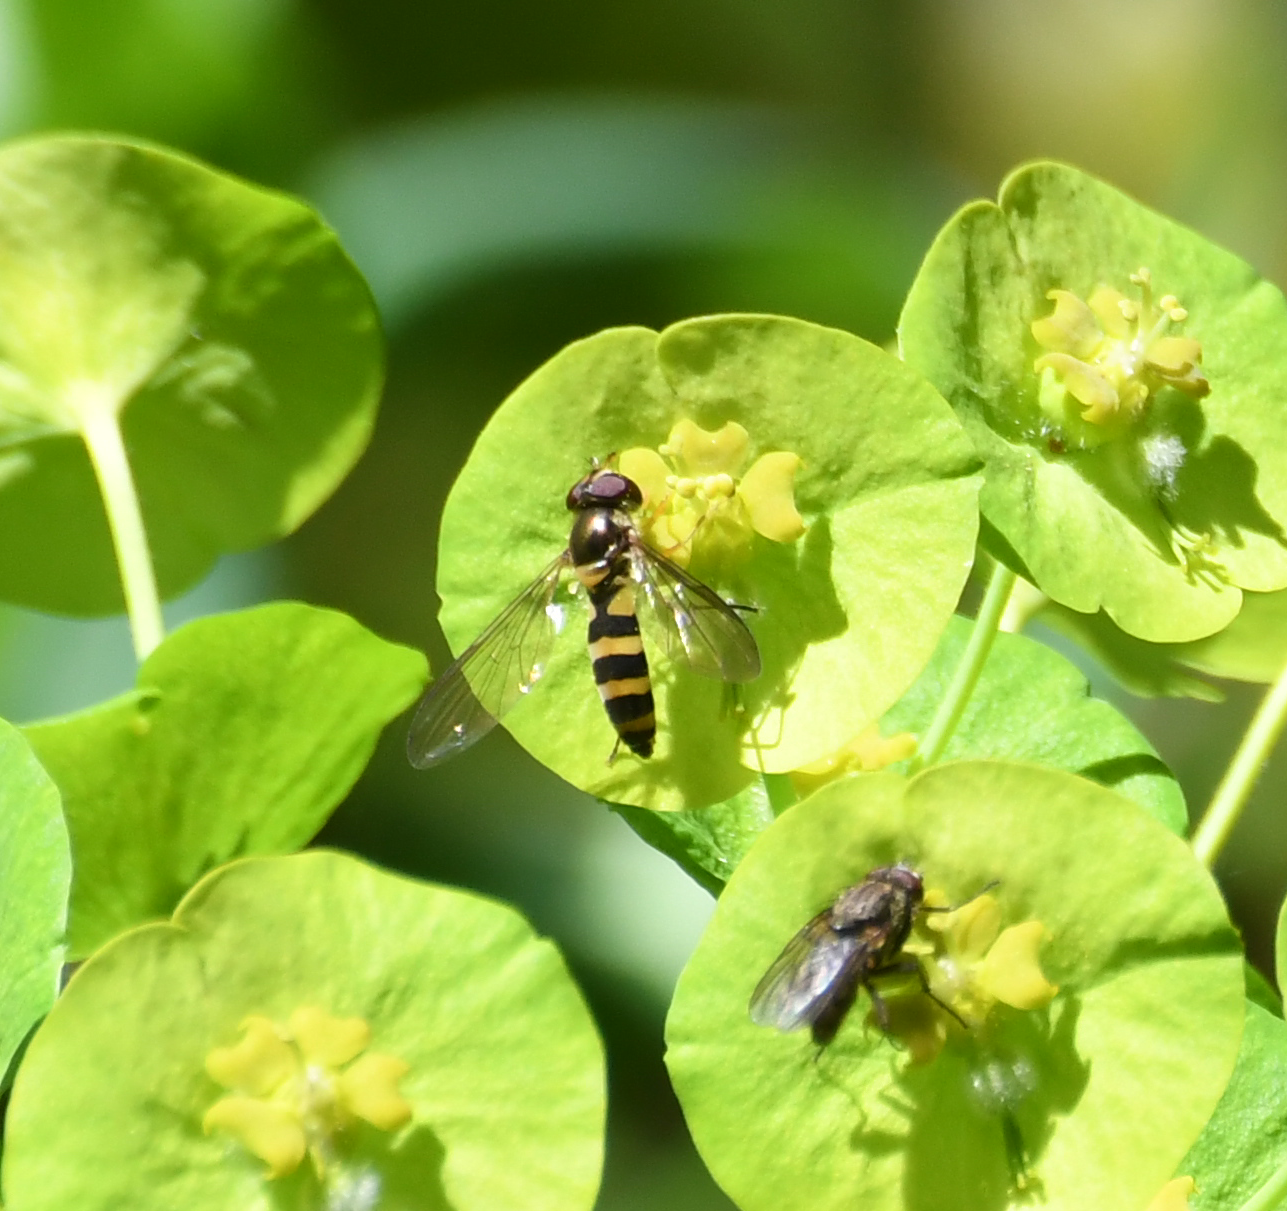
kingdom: Animalia
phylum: Arthropoda
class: Insecta
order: Diptera
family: Syrphidae
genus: Meliscaeva
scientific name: Meliscaeva cinctella
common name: American thintail fly
